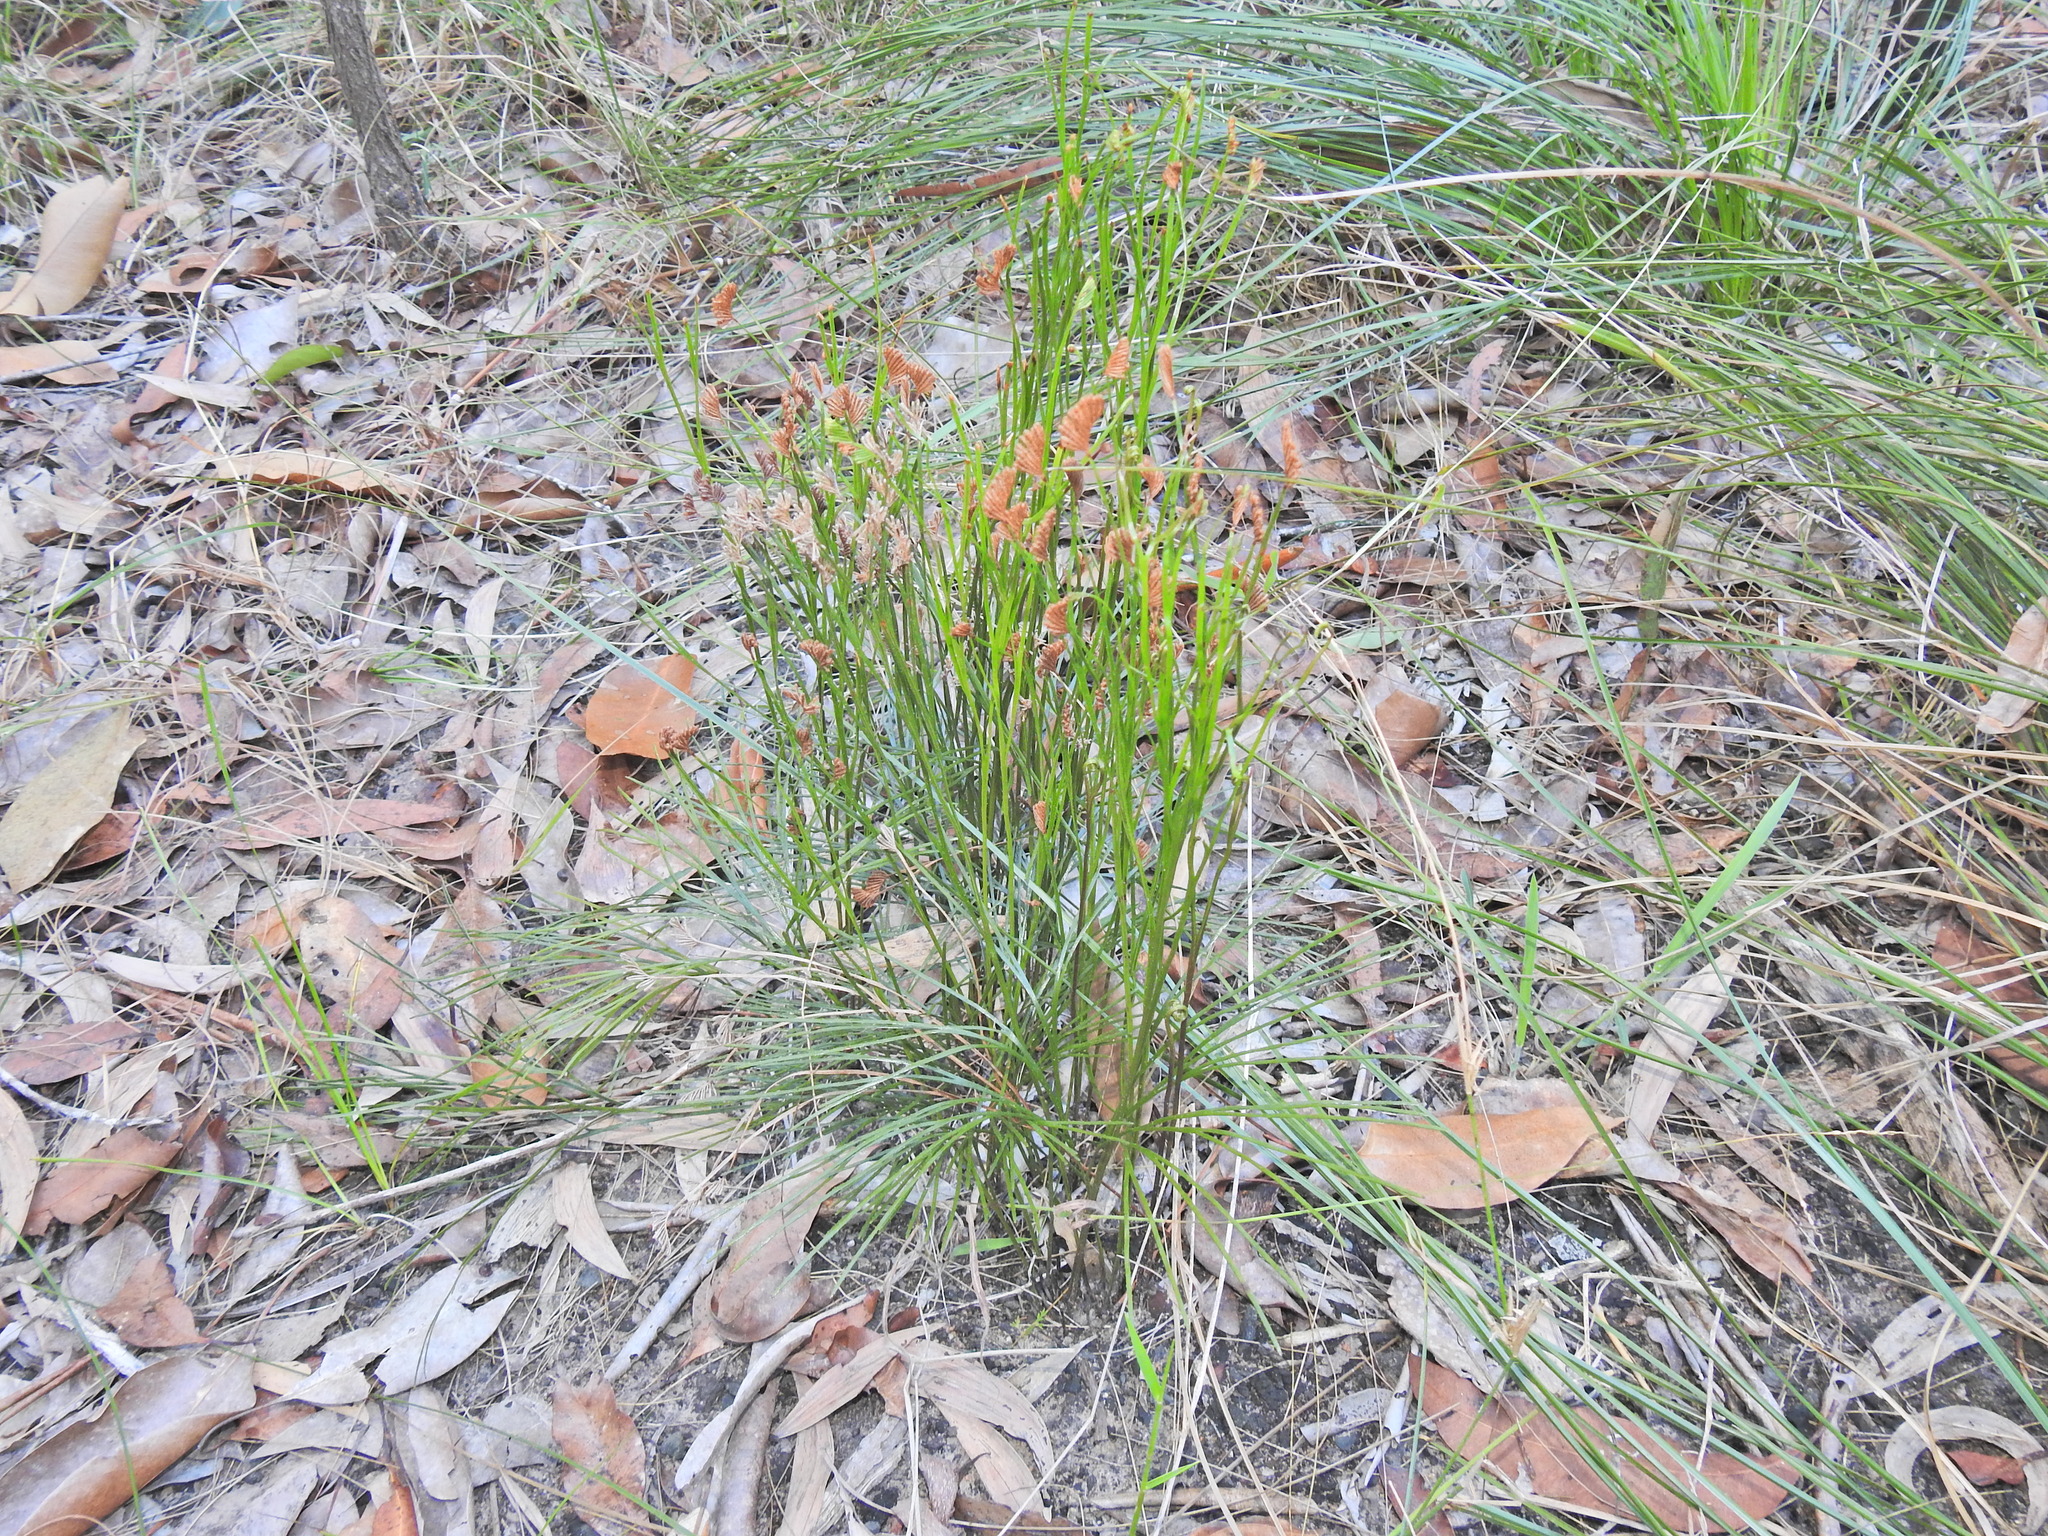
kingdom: Plantae
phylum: Tracheophyta
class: Polypodiopsida
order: Schizaeales
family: Schizaeaceae
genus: Schizaea
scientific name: Schizaea bifida
